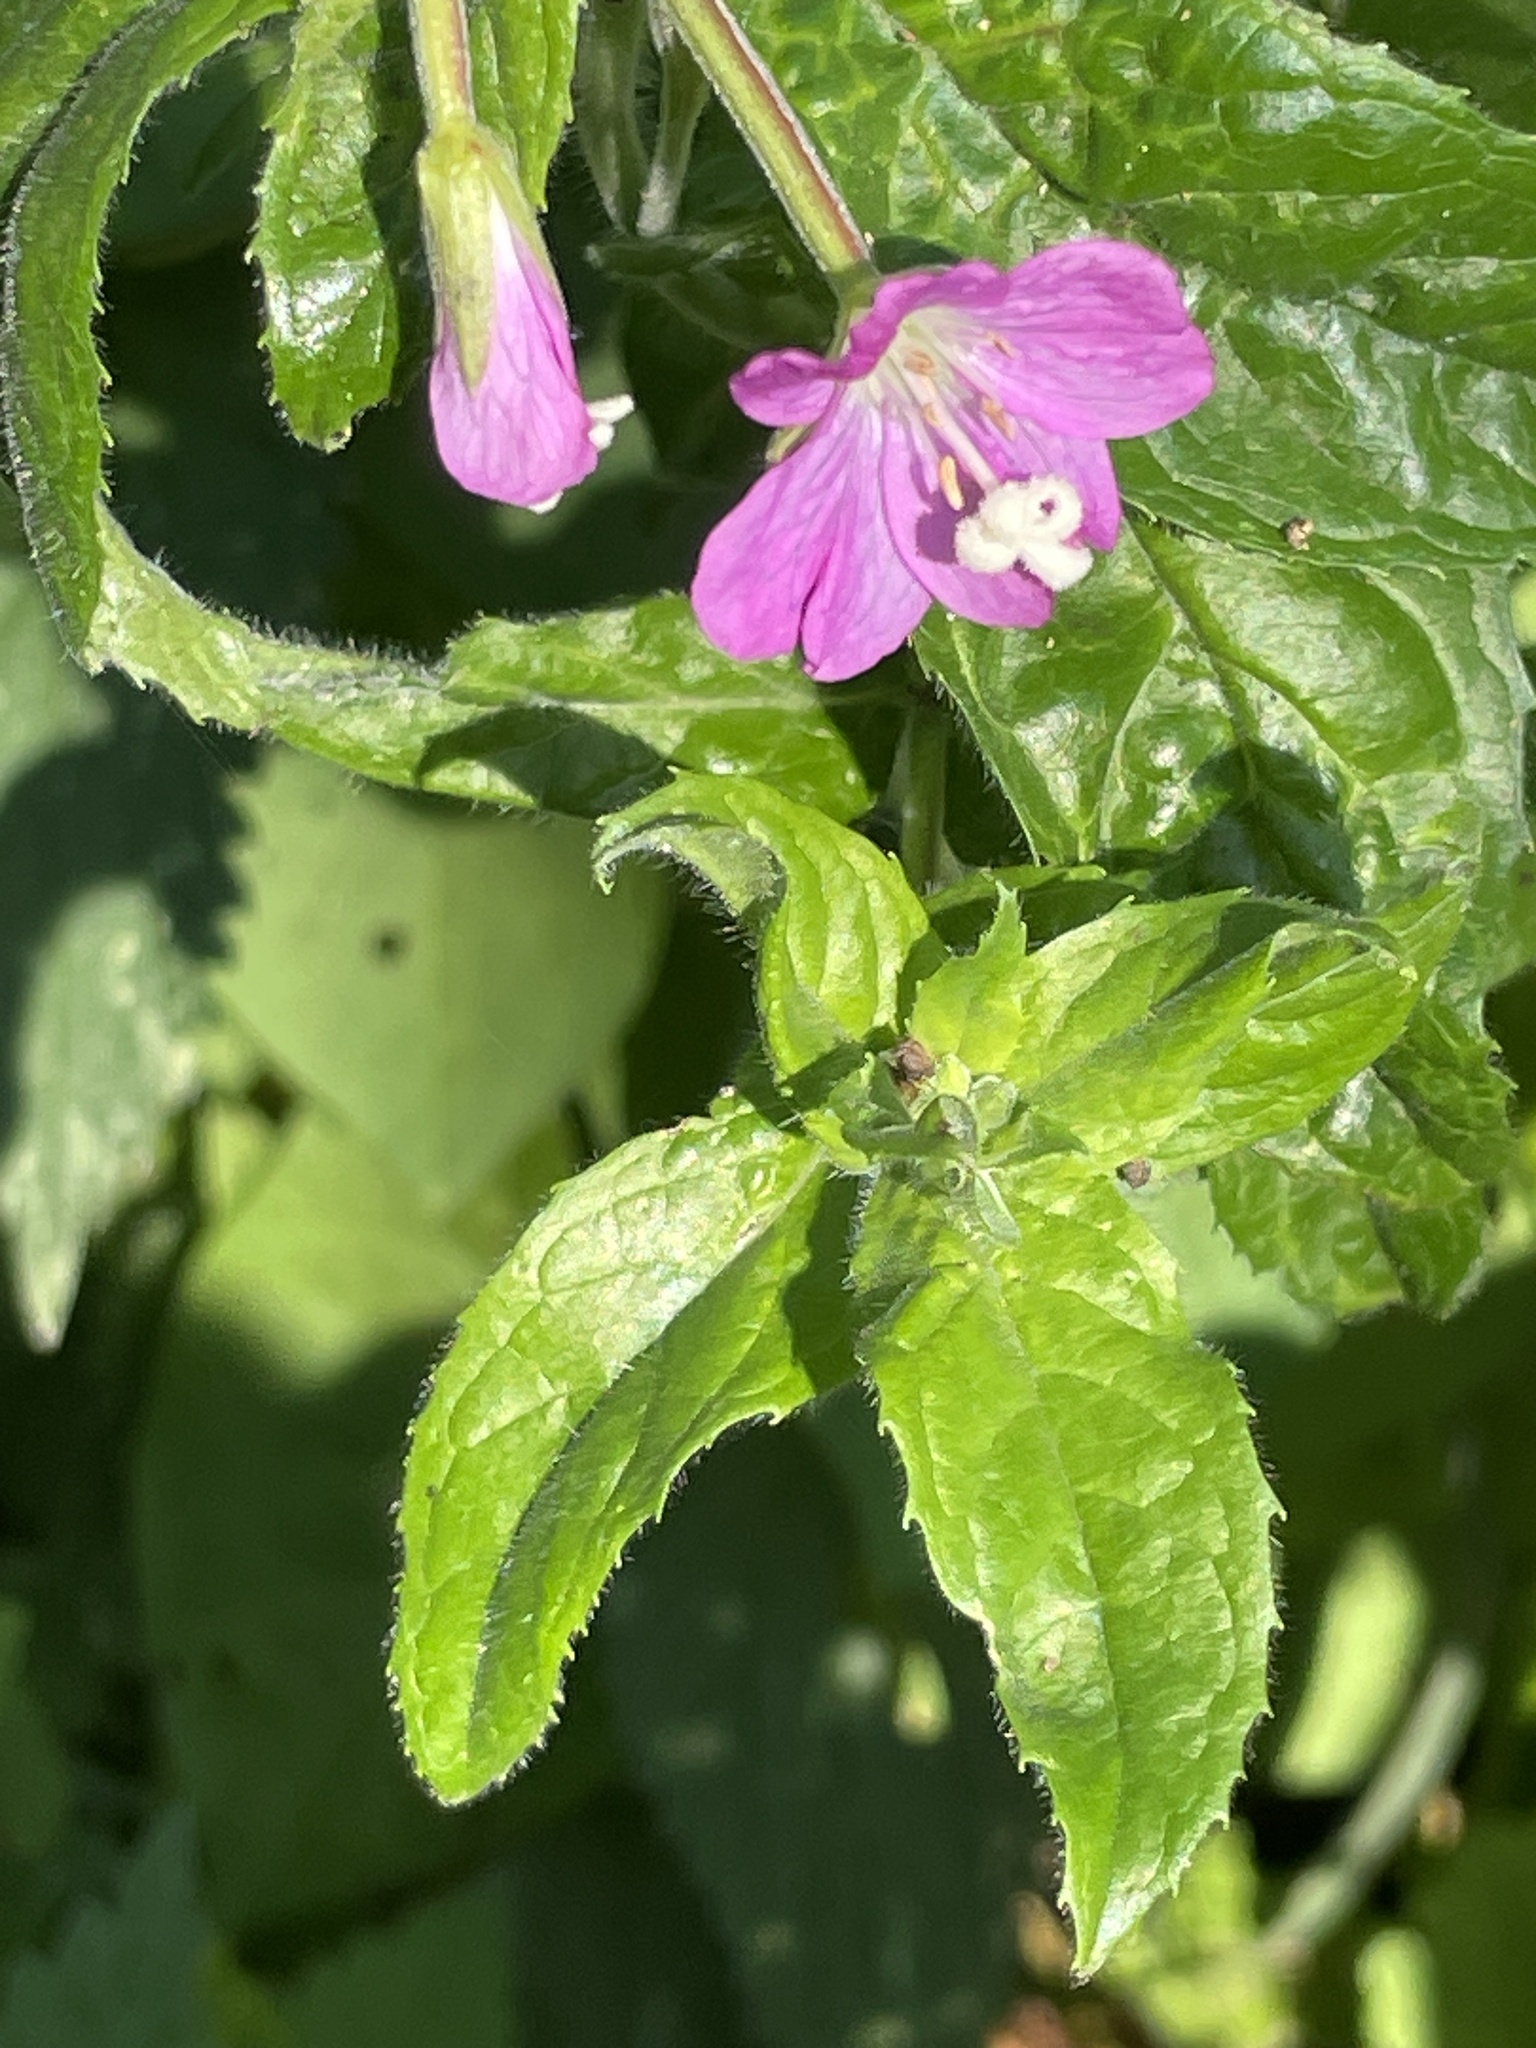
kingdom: Plantae
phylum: Tracheophyta
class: Magnoliopsida
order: Myrtales
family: Onagraceae
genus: Epilobium
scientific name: Epilobium hirsutum
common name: Great willowherb
